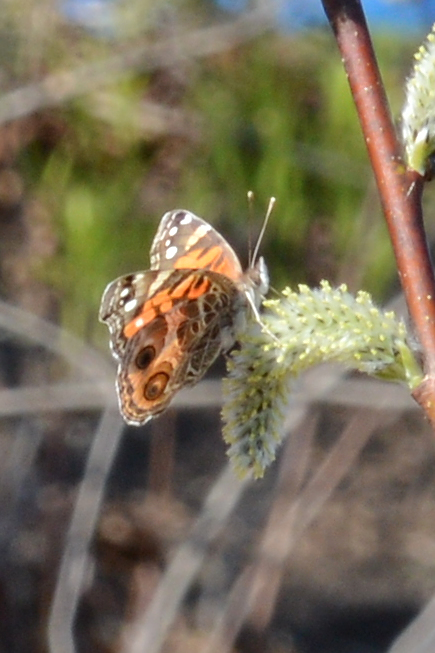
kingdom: Animalia
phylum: Arthropoda
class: Insecta
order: Lepidoptera
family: Nymphalidae
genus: Vanessa
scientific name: Vanessa virginiensis
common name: American lady
